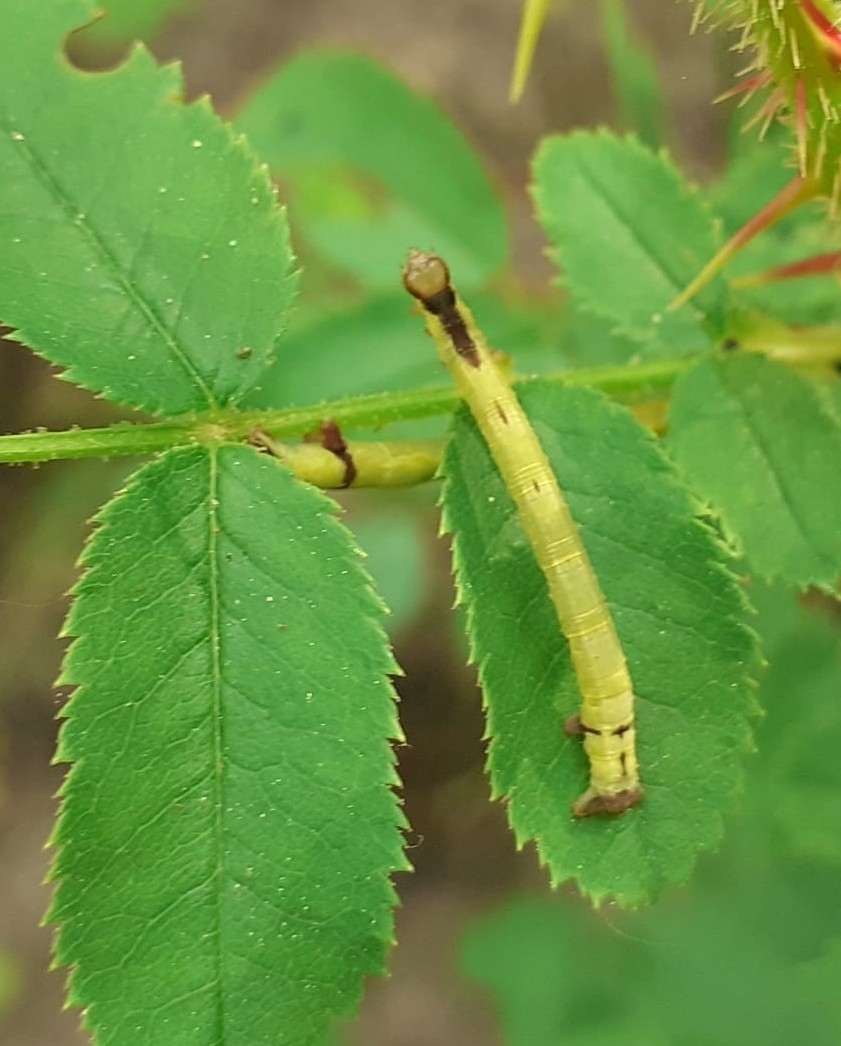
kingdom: Animalia
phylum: Arthropoda
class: Insecta
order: Lepidoptera
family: Geometridae
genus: Anticlea
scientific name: Anticlea derivata
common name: Streamer
